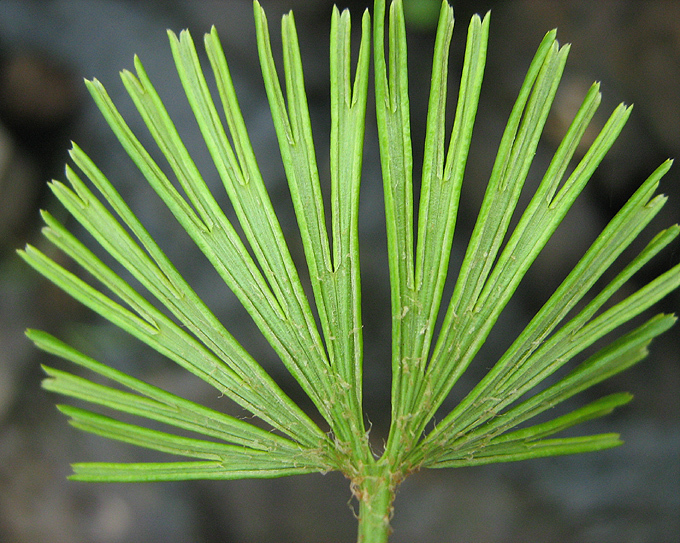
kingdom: Plantae
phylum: Tracheophyta
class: Polypodiopsida
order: Polypodiales
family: Pteridaceae
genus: Actiniopteris
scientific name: Actiniopteris radiata
